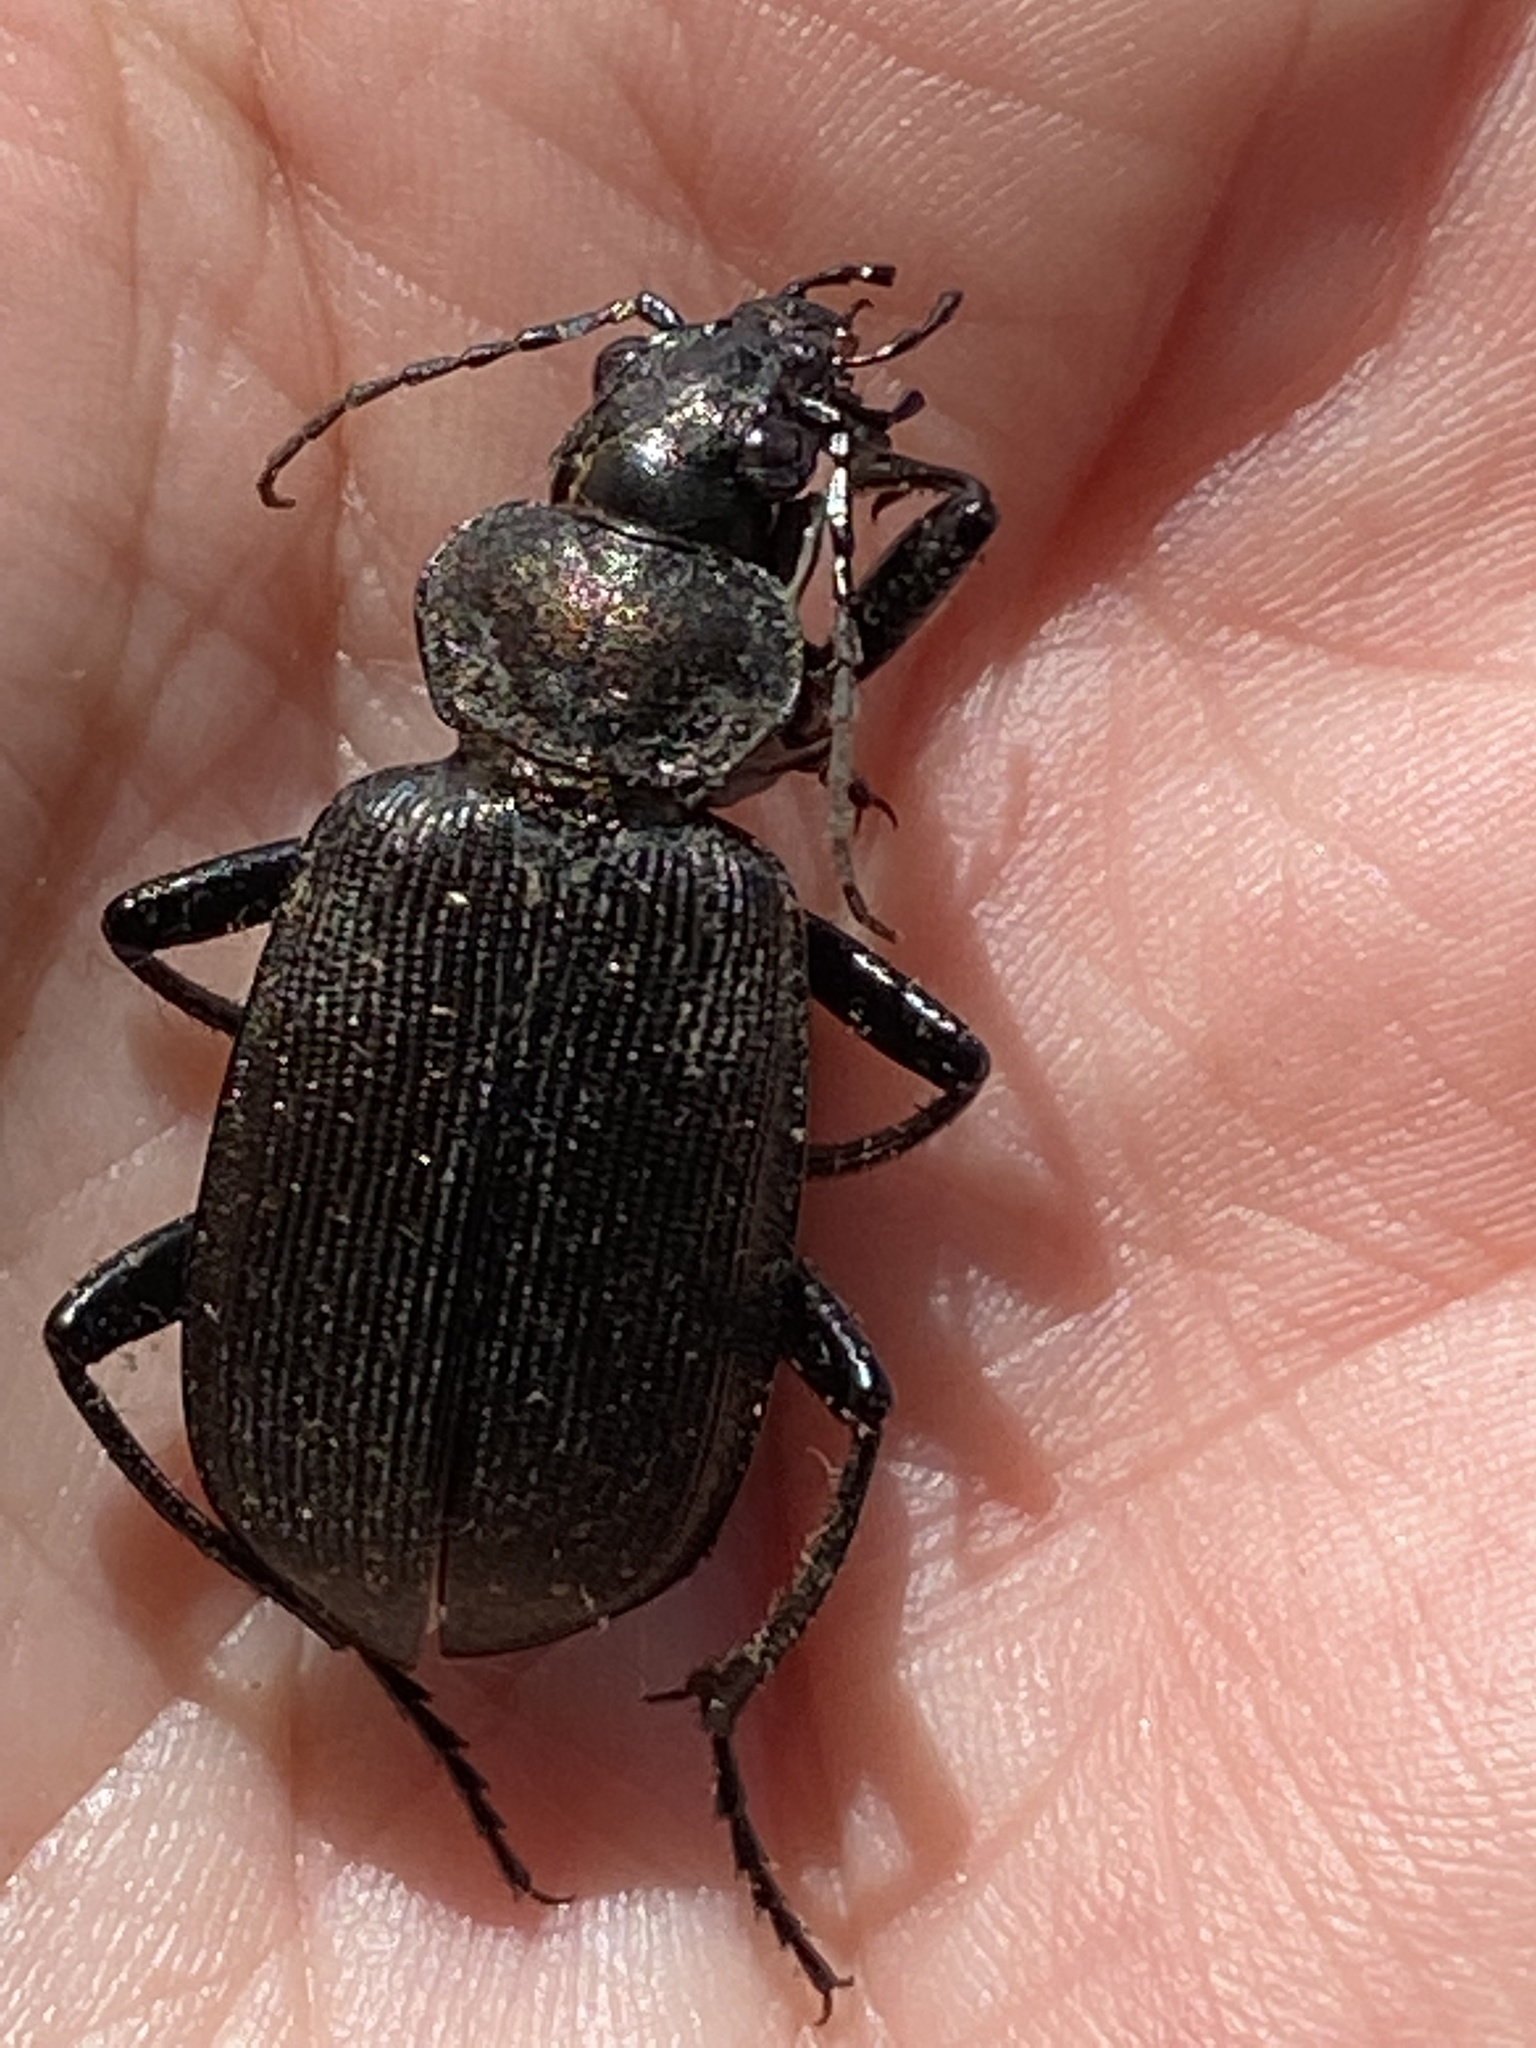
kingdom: Animalia
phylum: Arthropoda
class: Insecta
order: Coleoptera
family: Carabidae
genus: Calosoma
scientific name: Calosoma chlorostictum
